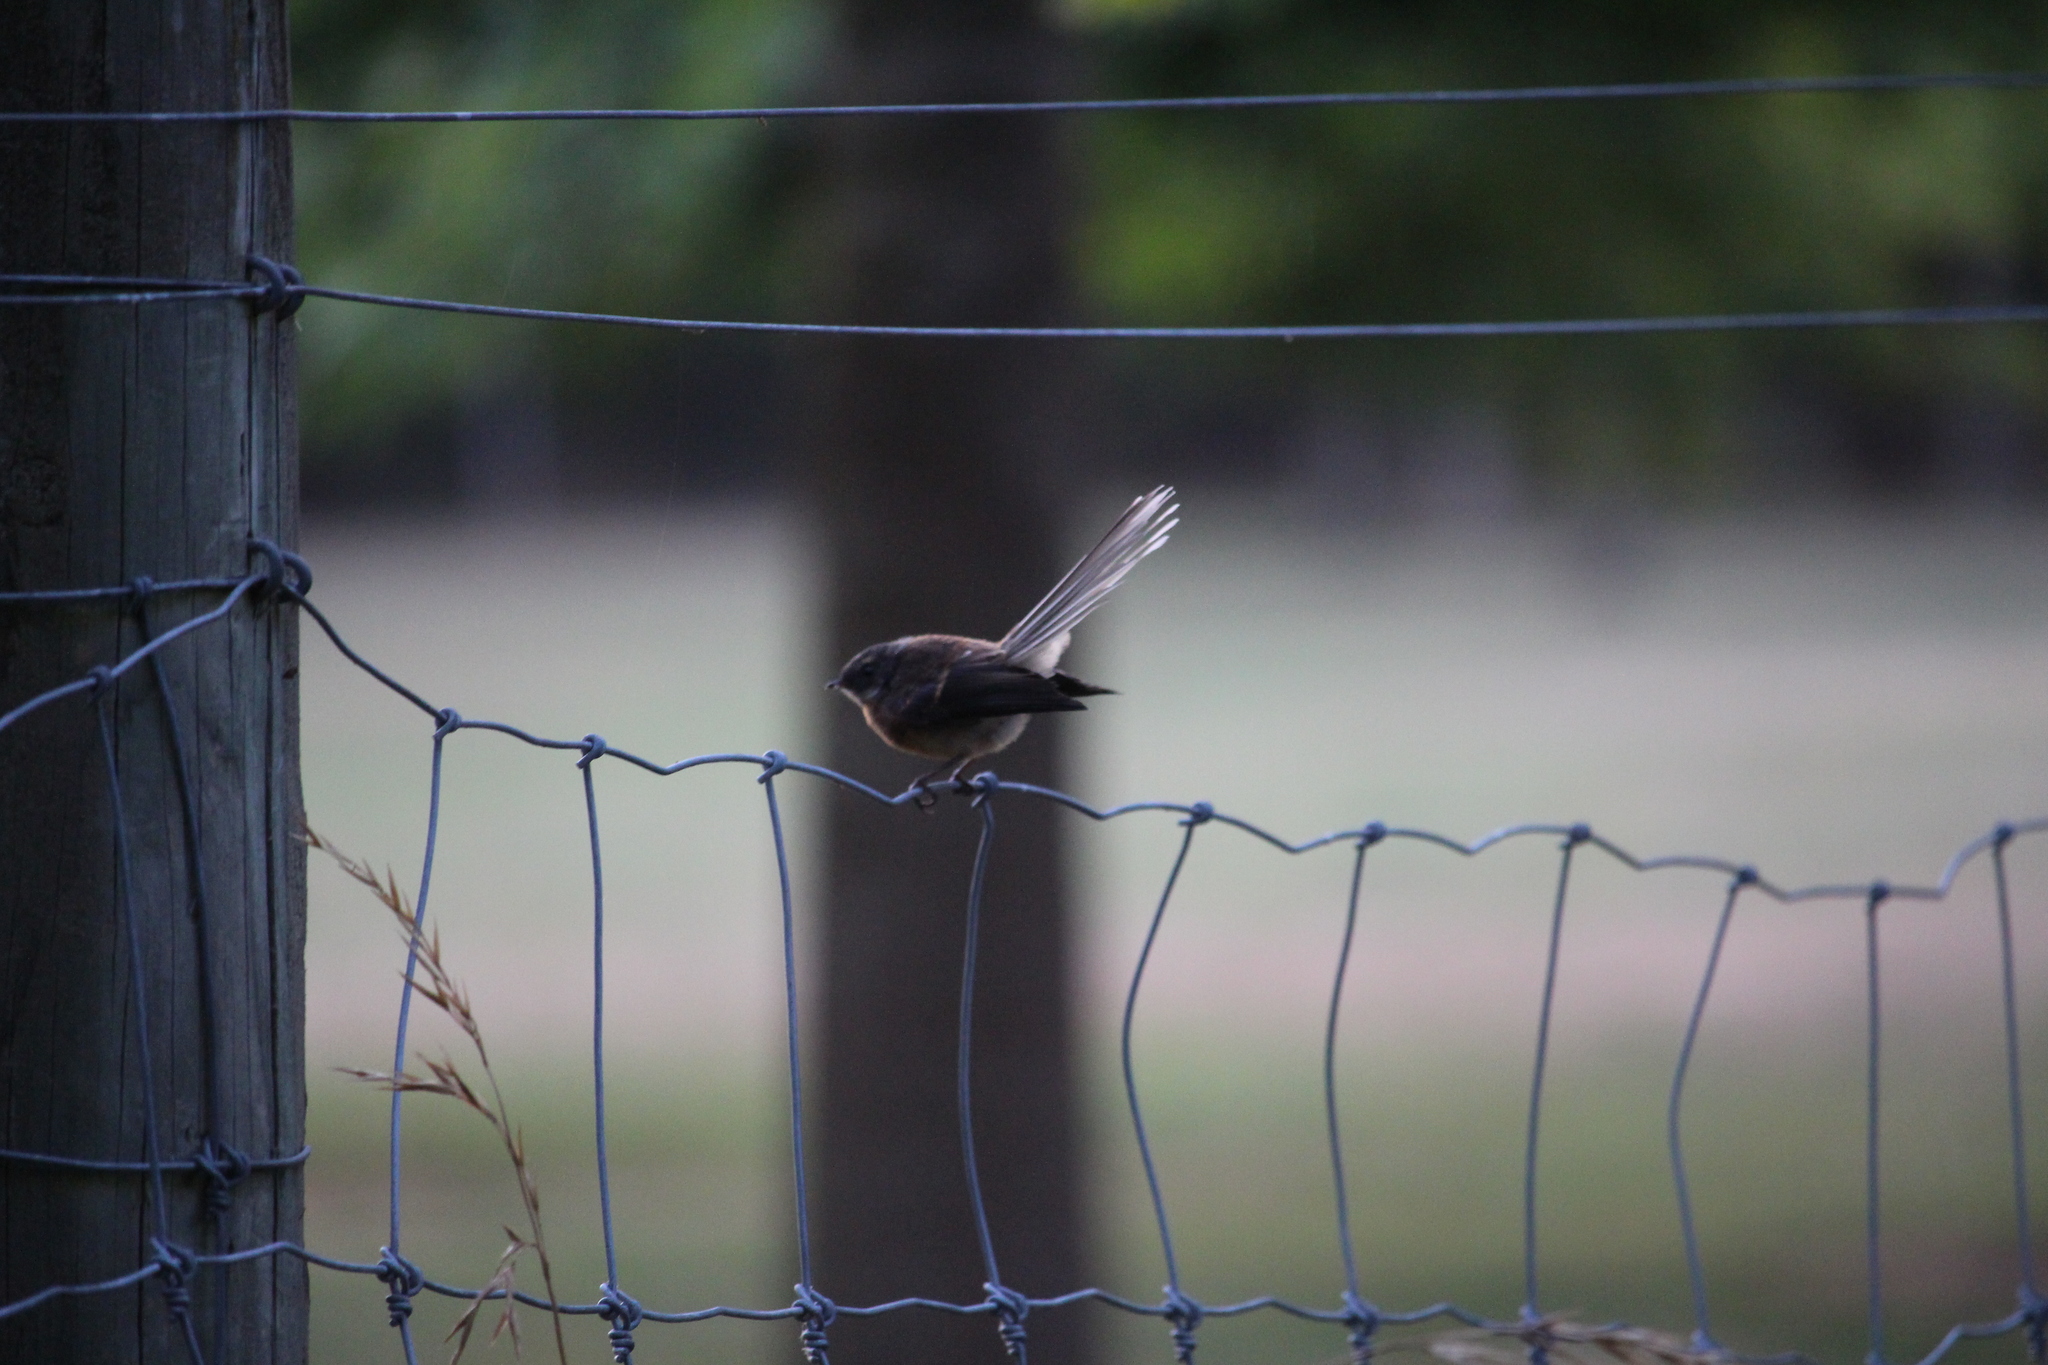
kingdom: Animalia
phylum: Chordata
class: Aves
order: Passeriformes
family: Rhipiduridae
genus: Rhipidura
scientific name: Rhipidura fuliginosa
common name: New zealand fantail
